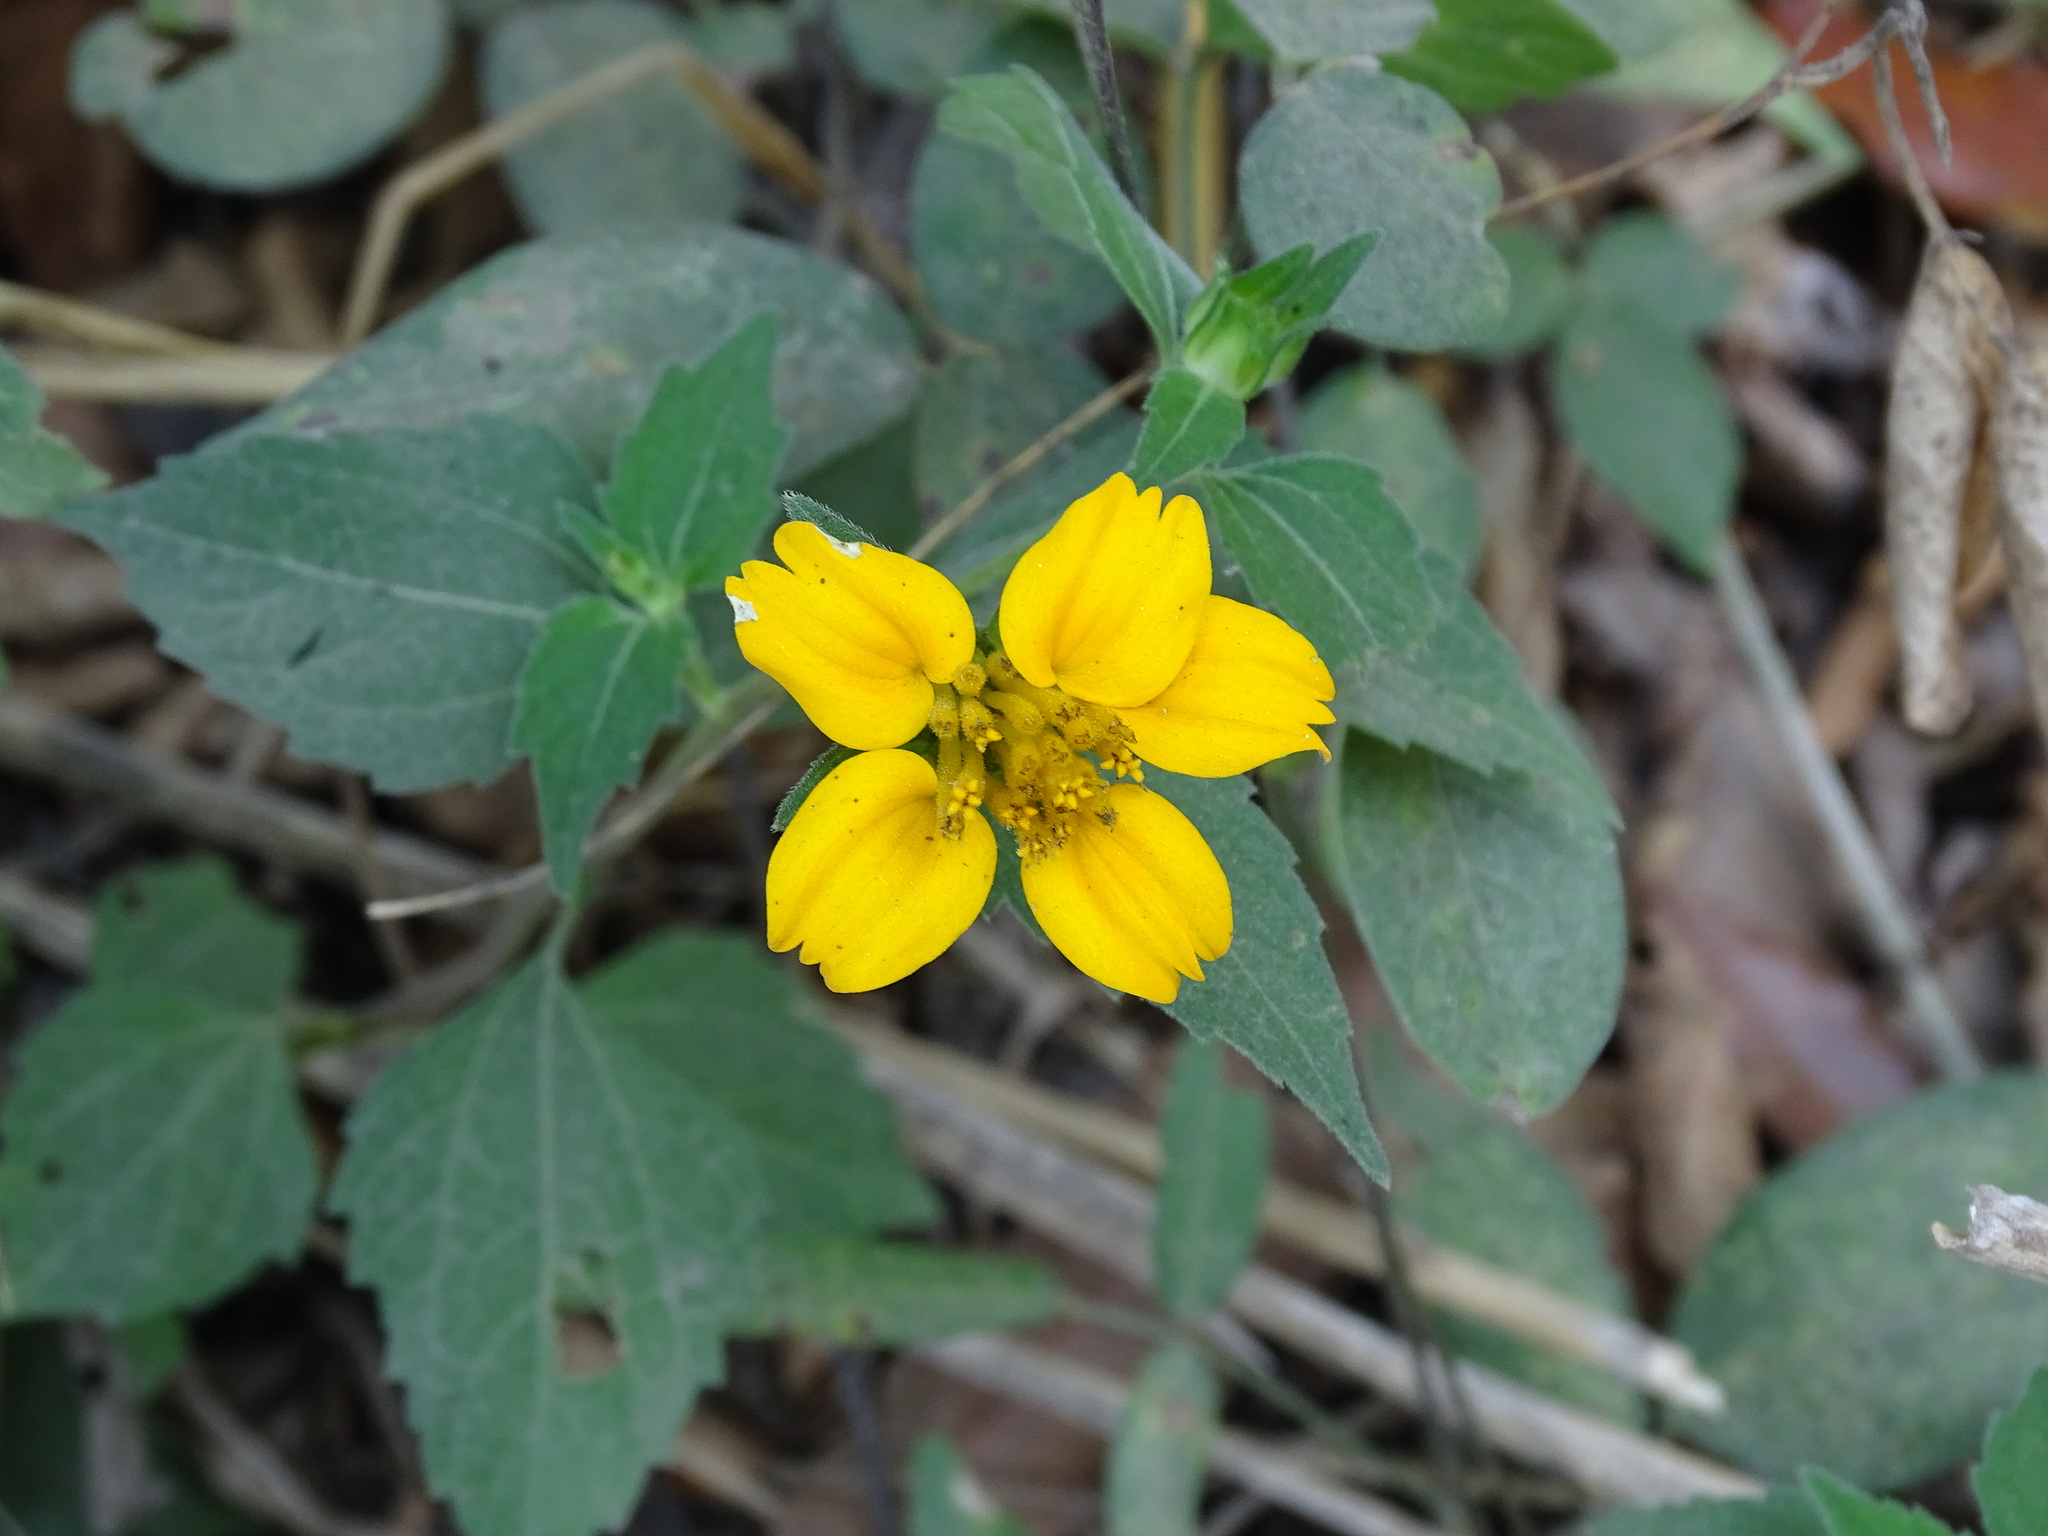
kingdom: Plantae
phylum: Tracheophyta
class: Magnoliopsida
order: Asterales
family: Asteraceae
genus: Sclerocarpus
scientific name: Sclerocarpus divaricatus
